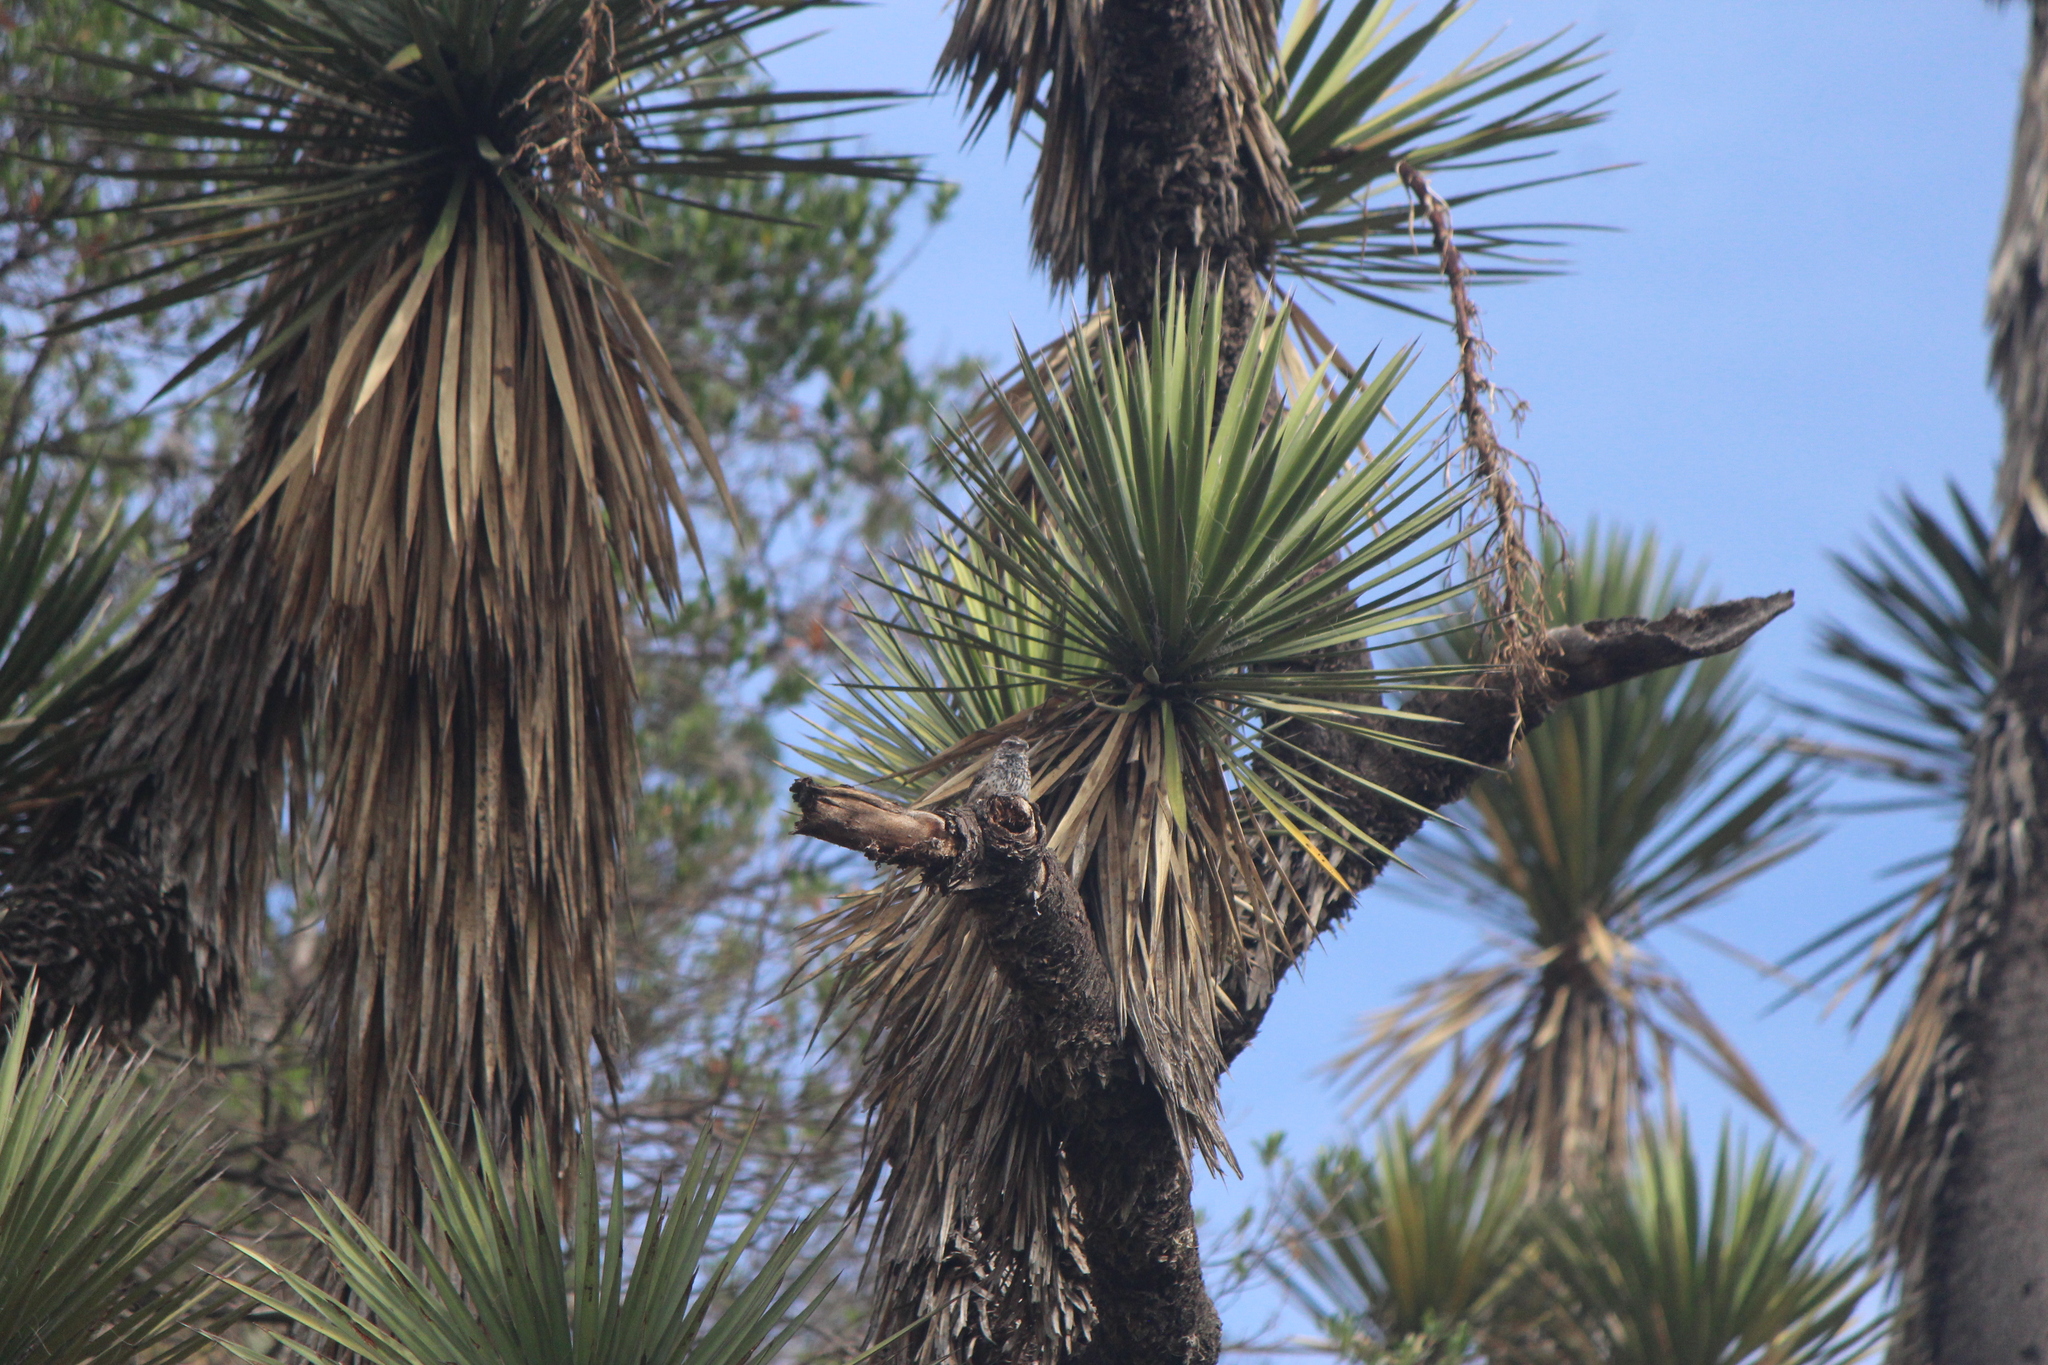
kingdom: Animalia
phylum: Chordata
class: Aves
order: Passeriformes
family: Troglodytidae
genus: Campylorhynchus
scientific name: Campylorhynchus brunneicapillus
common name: Cactus wren
